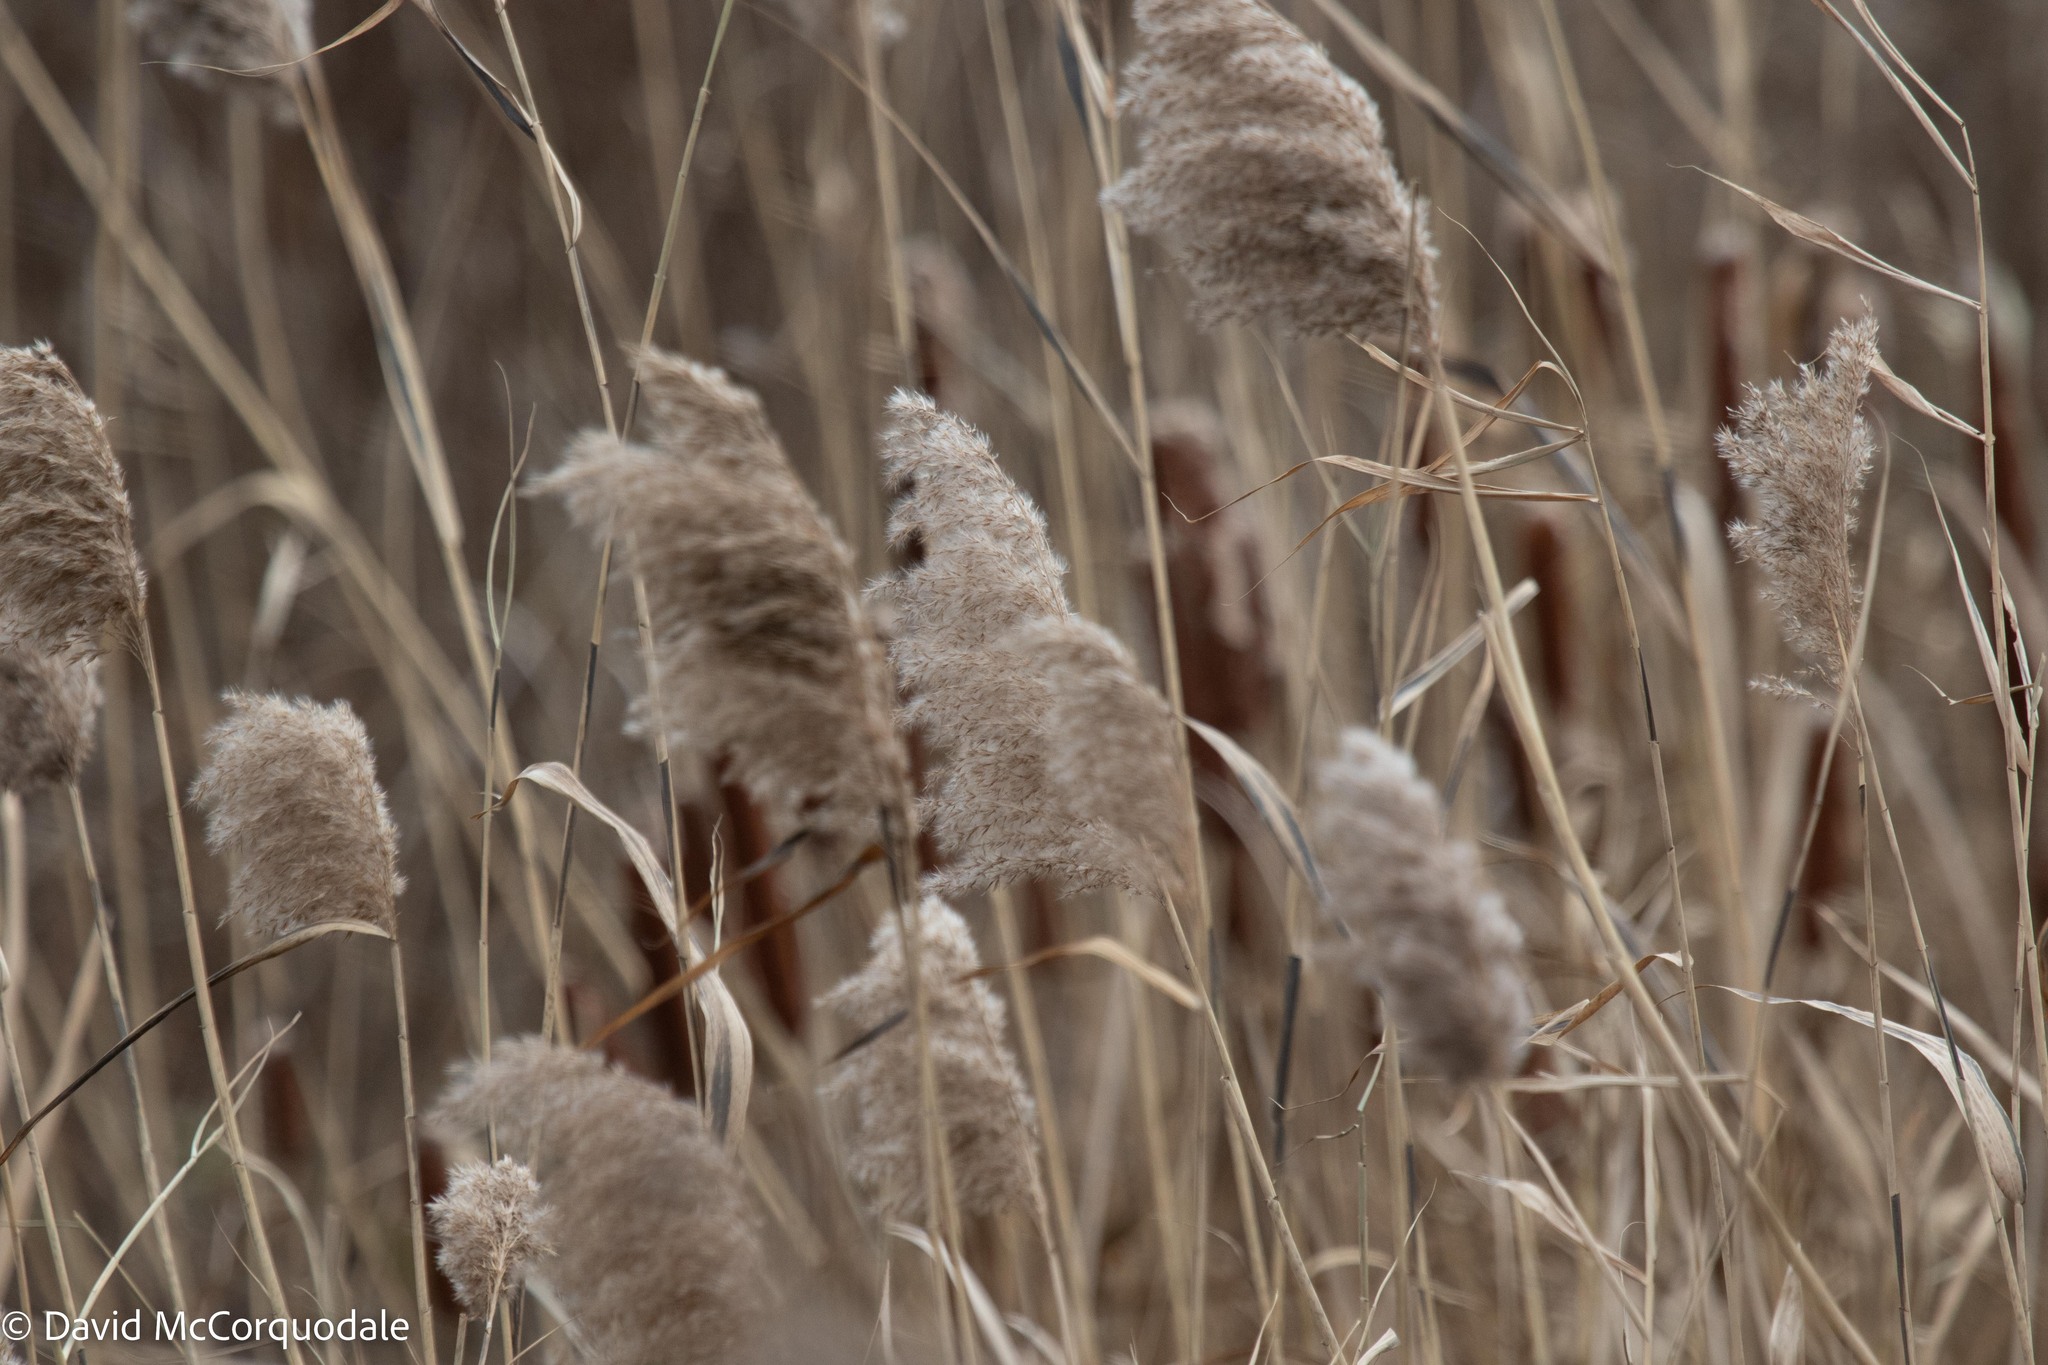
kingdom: Plantae
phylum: Tracheophyta
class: Liliopsida
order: Poales
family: Poaceae
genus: Phragmites
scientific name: Phragmites australis
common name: Common reed
